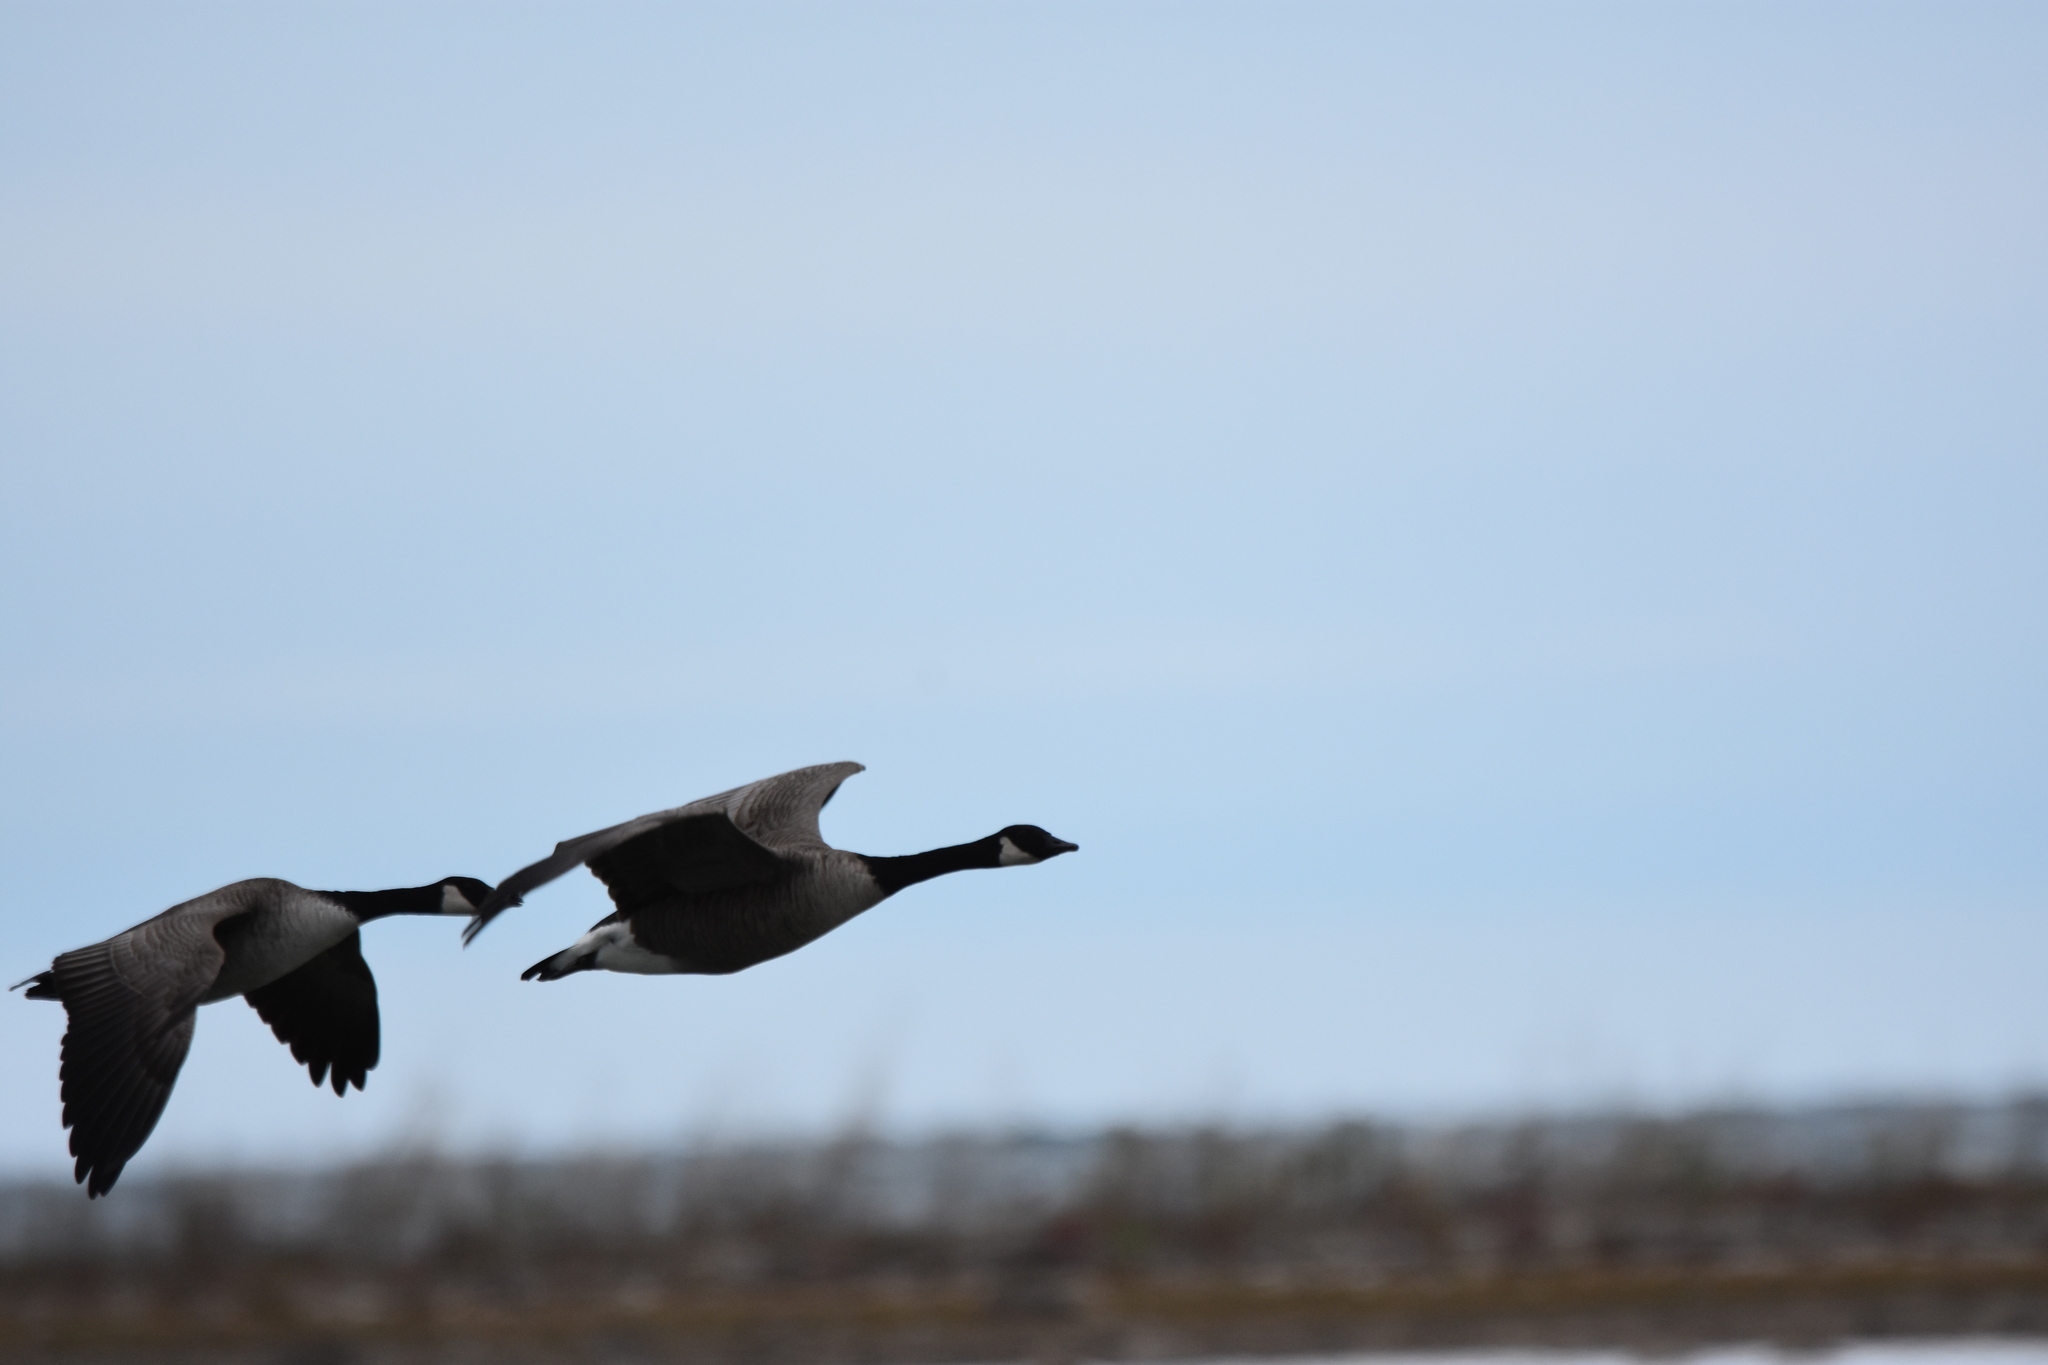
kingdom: Animalia
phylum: Chordata
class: Aves
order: Anseriformes
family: Anatidae
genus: Branta
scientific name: Branta canadensis
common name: Canada goose
